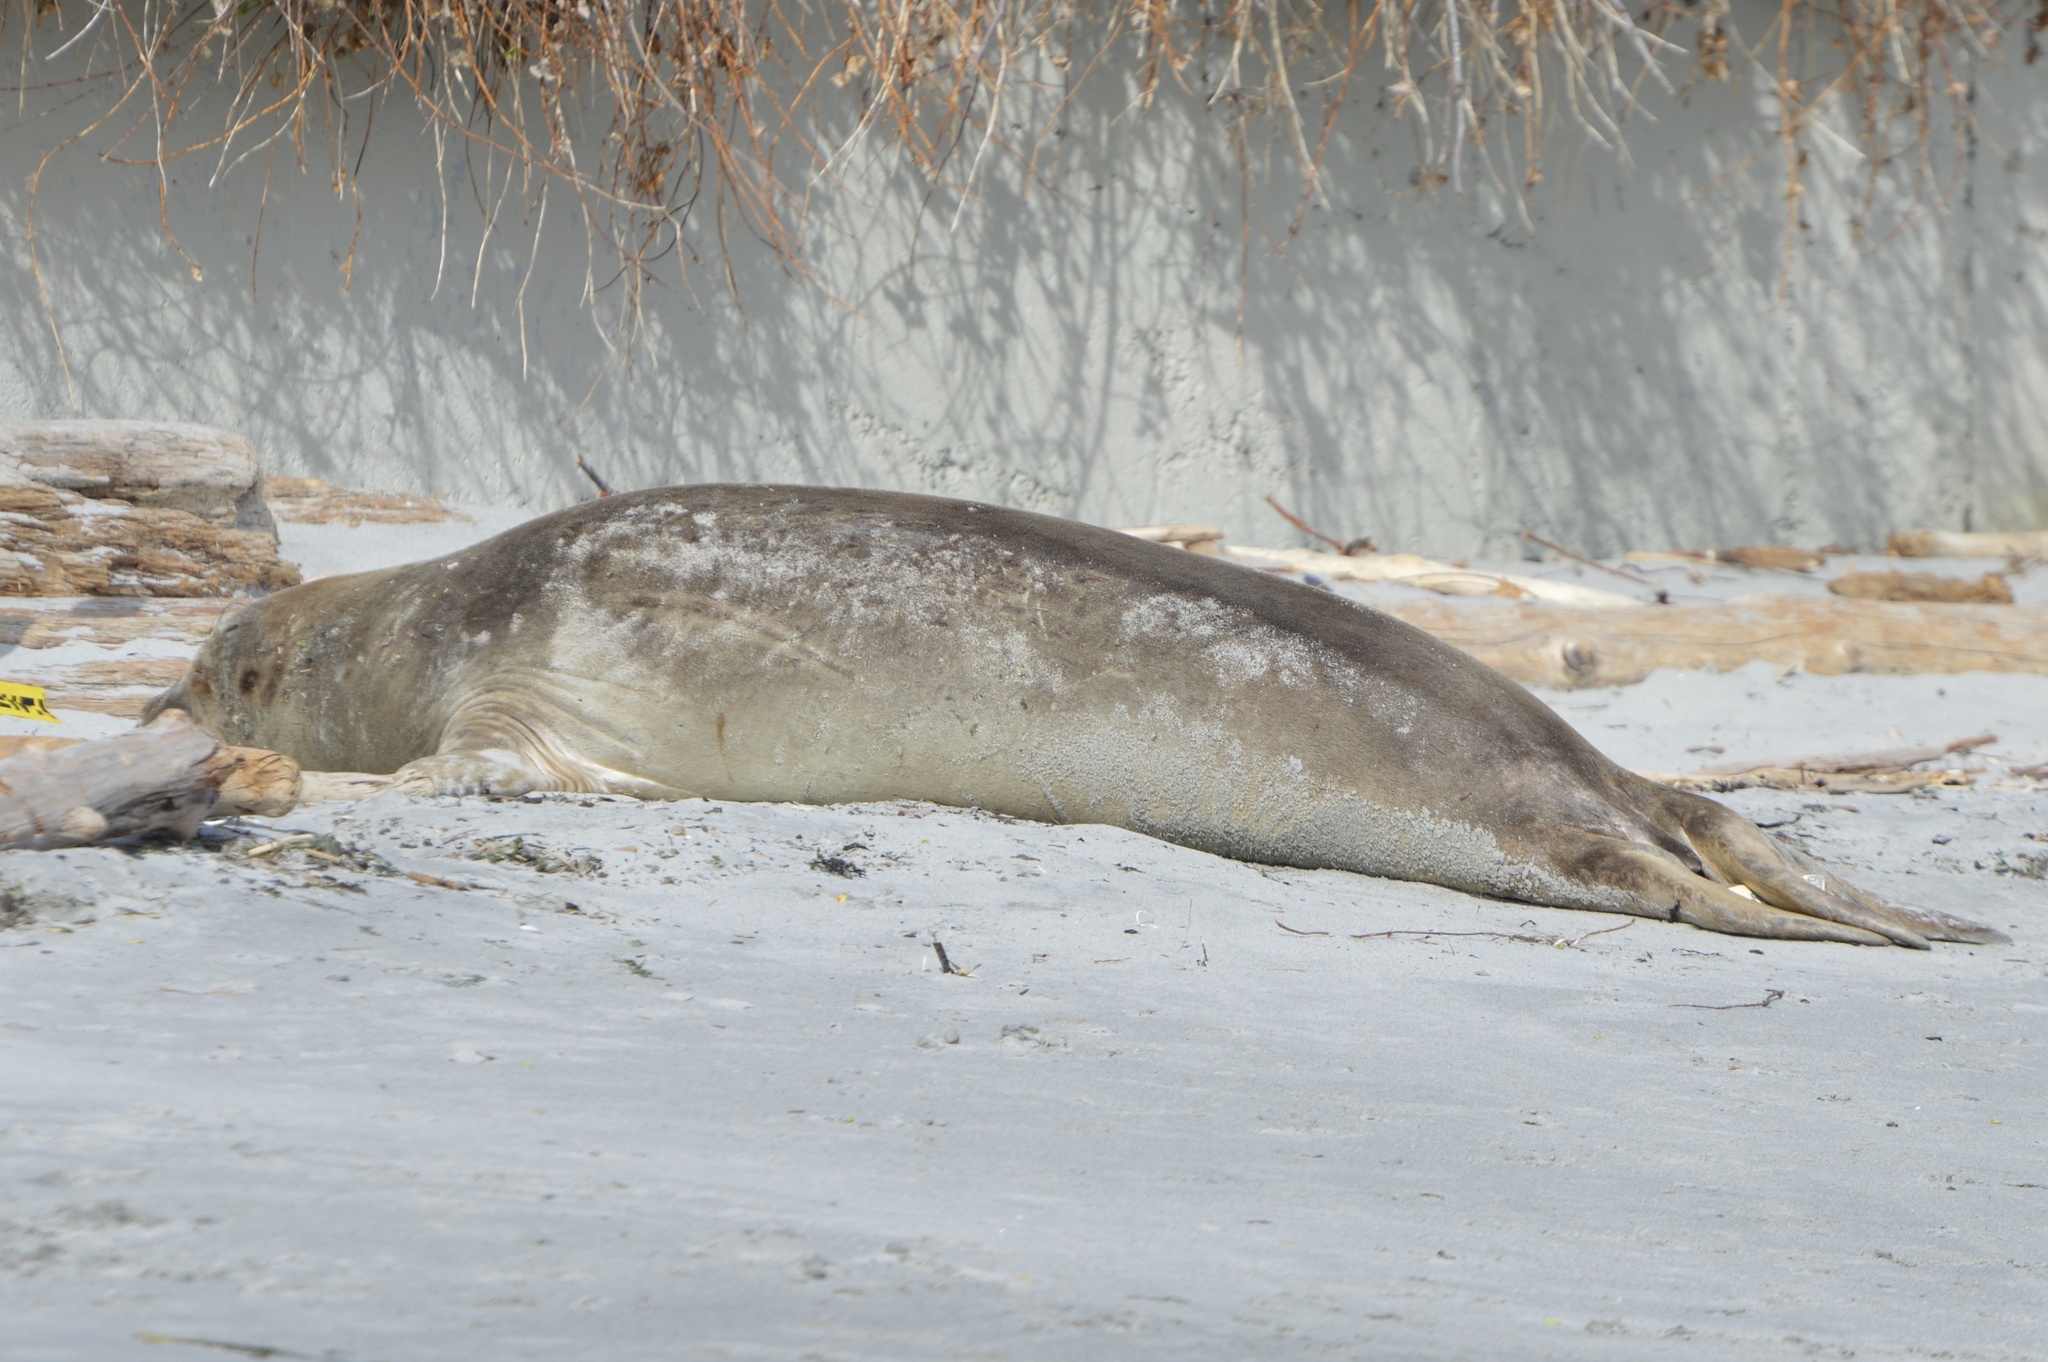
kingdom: Animalia
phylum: Chordata
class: Mammalia
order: Carnivora
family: Phocidae
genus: Mirounga
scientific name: Mirounga angustirostris
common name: Northern elephant seal
